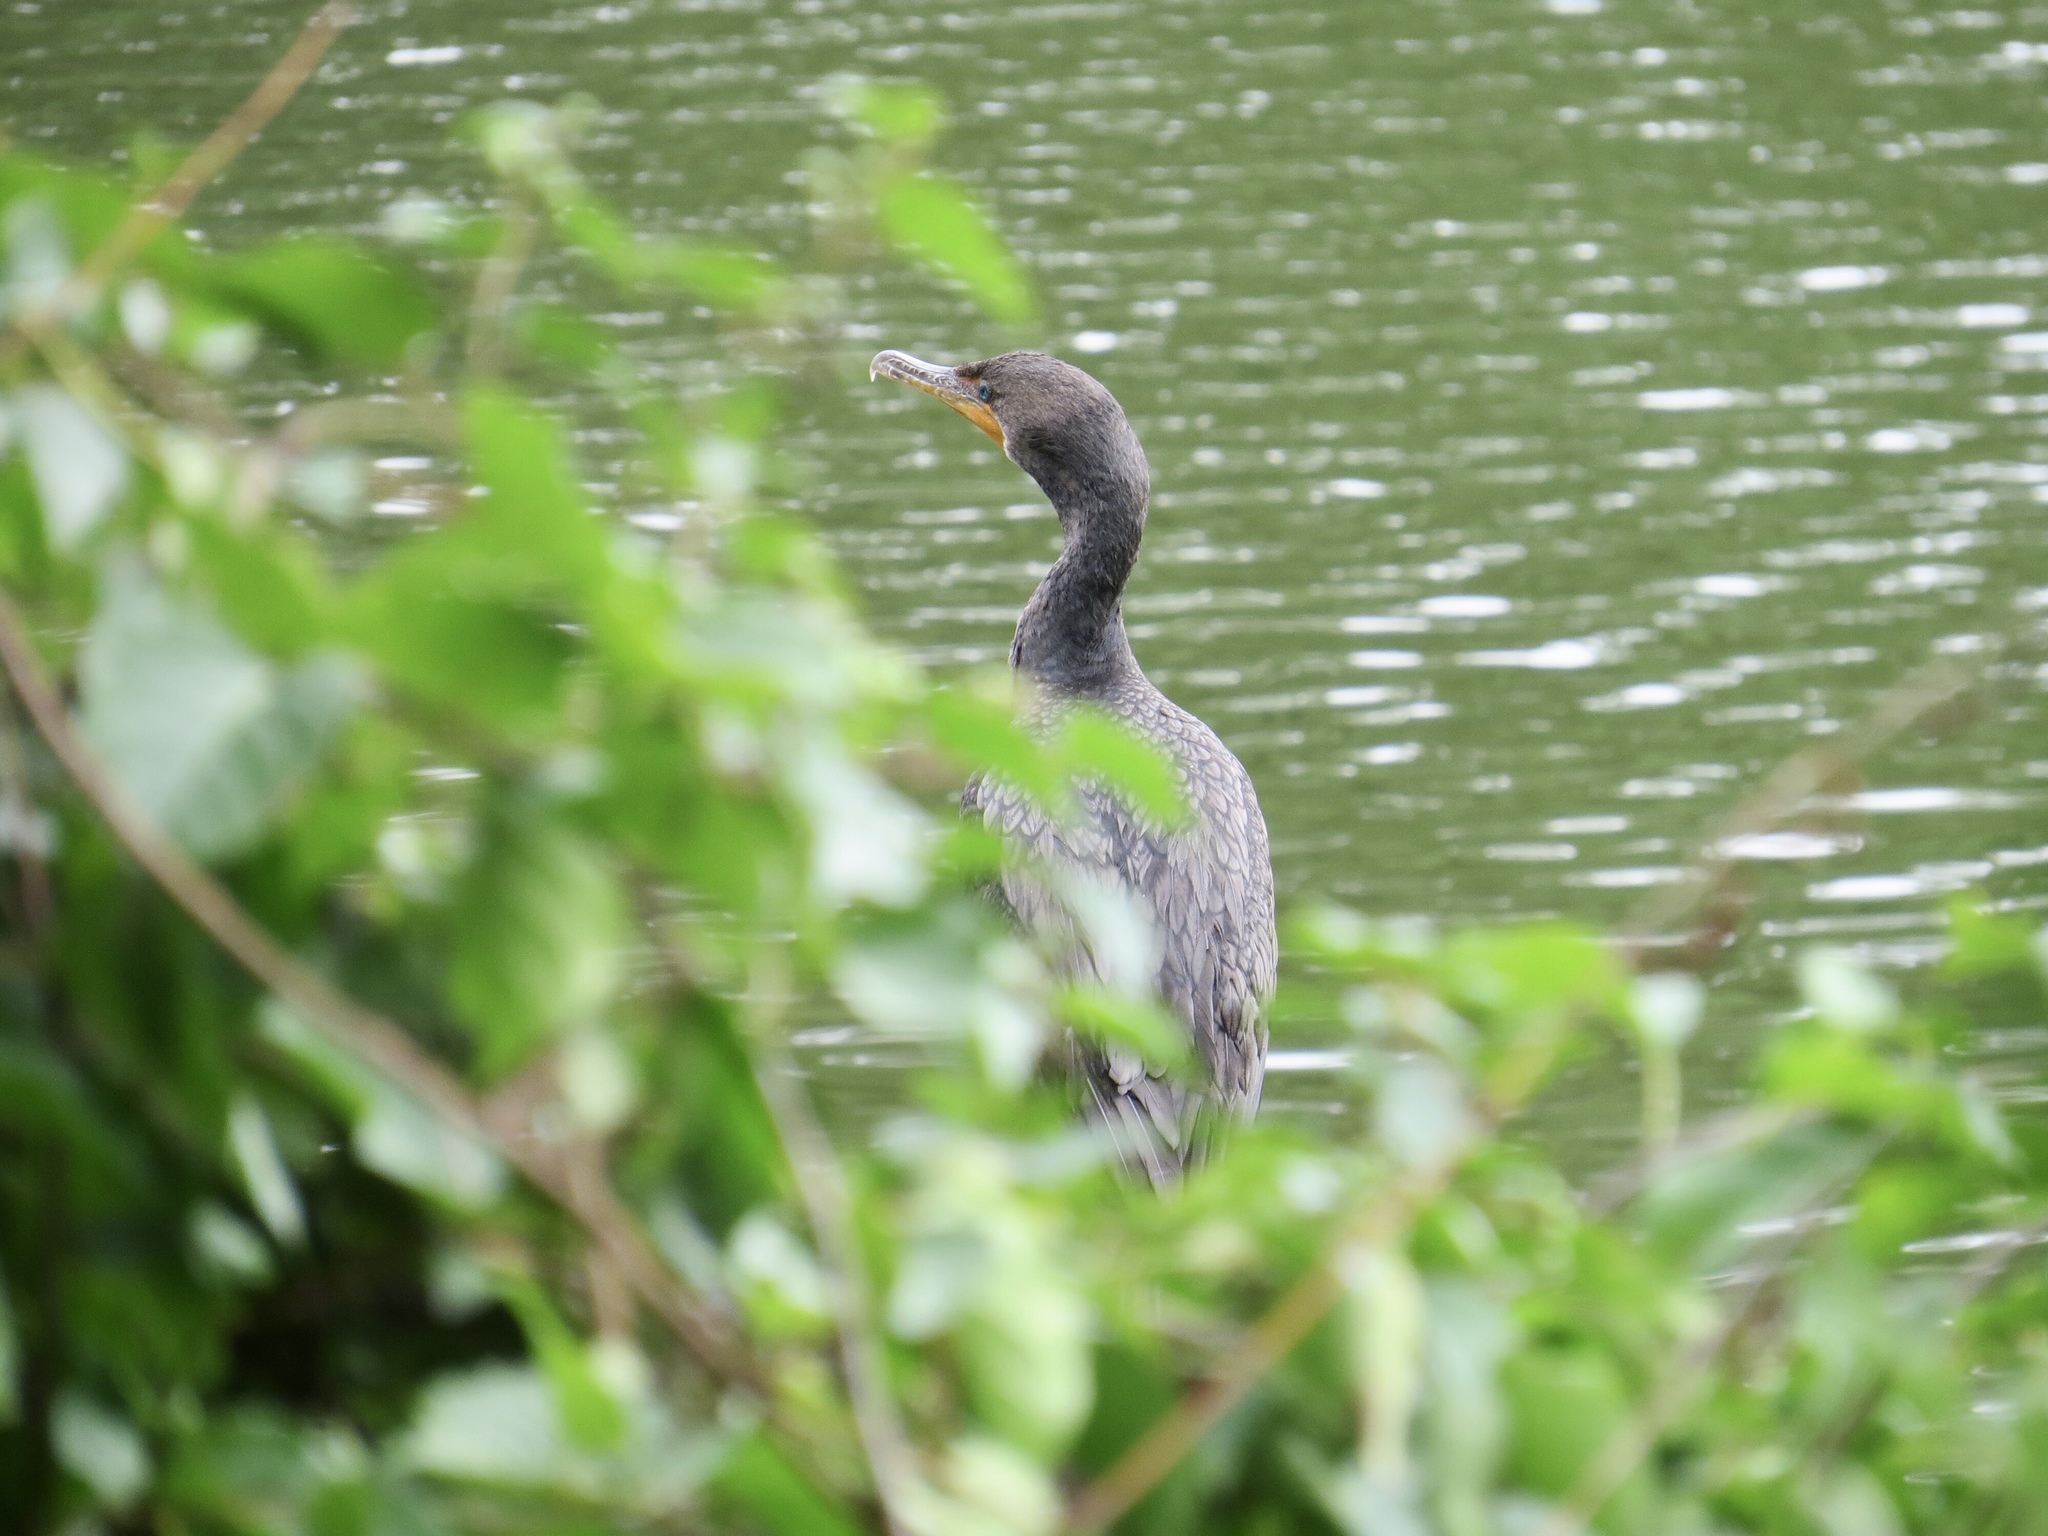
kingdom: Animalia
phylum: Chordata
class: Aves
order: Suliformes
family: Phalacrocoracidae
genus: Phalacrocorax
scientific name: Phalacrocorax auritus
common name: Double-crested cormorant
